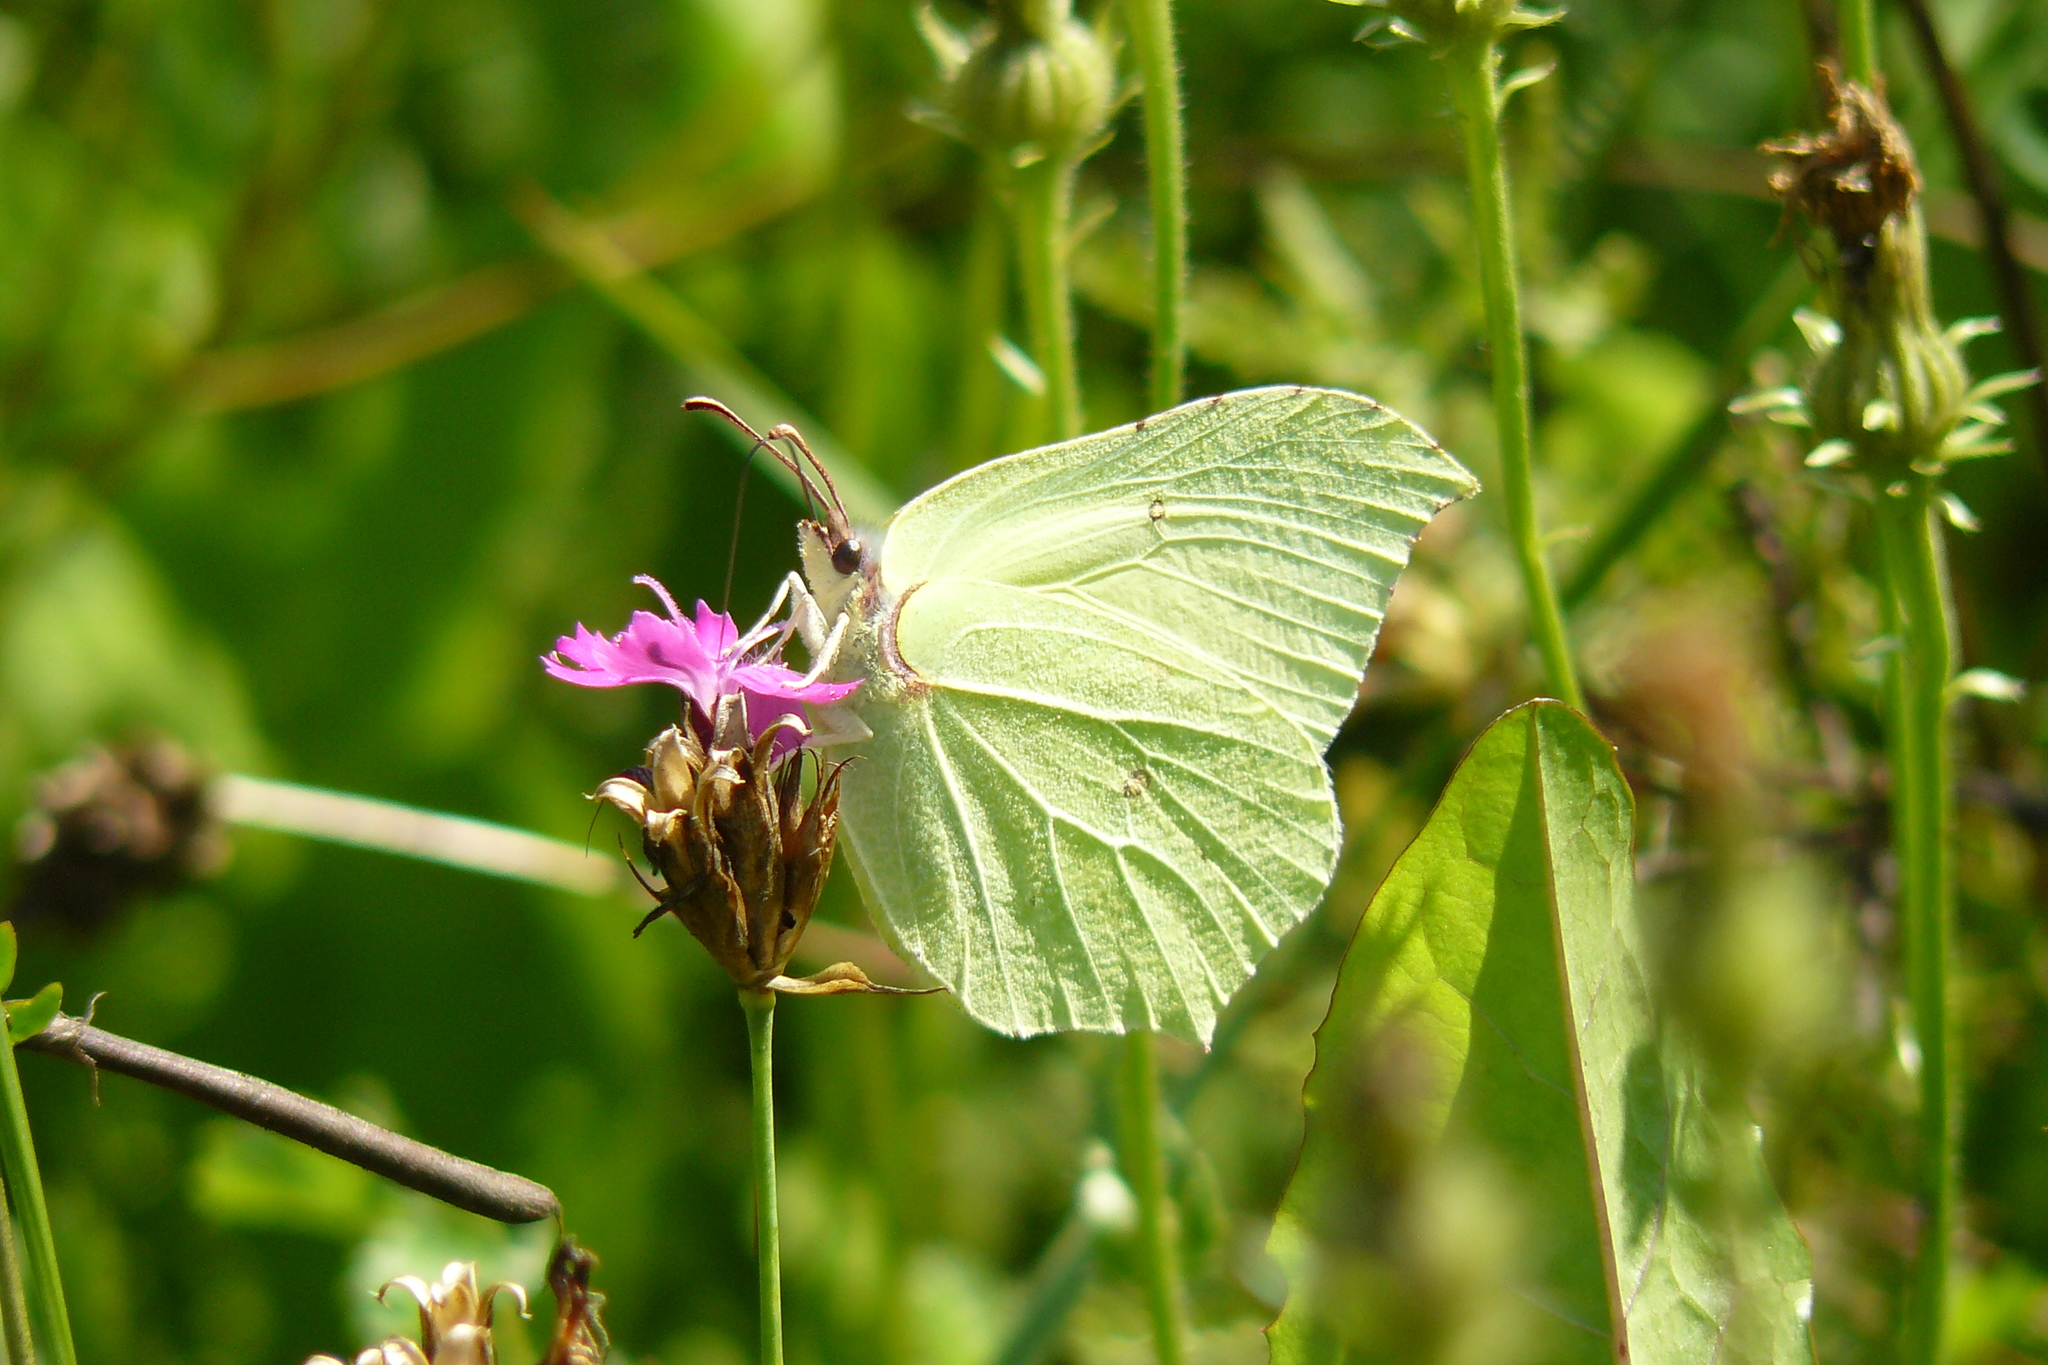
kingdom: Animalia
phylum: Arthropoda
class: Insecta
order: Lepidoptera
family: Pieridae
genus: Gonepteryx
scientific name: Gonepteryx rhamni
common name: Brimstone
